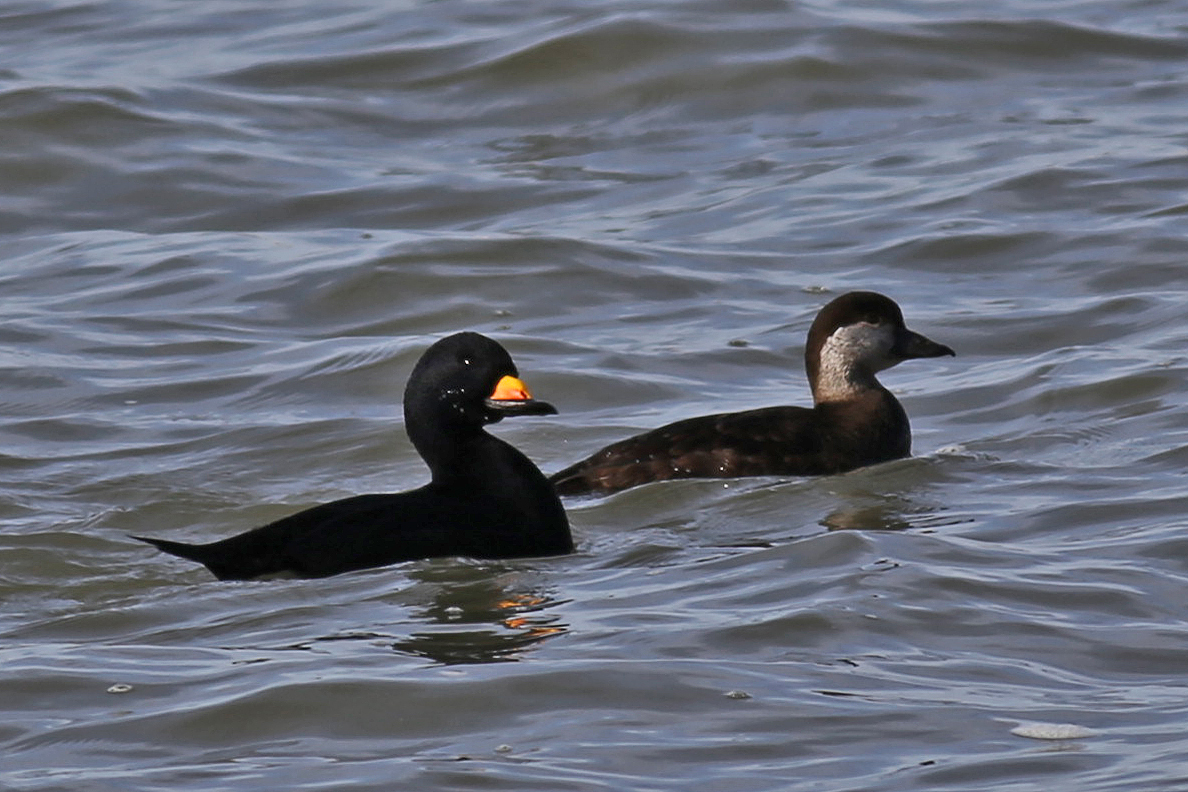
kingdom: Animalia
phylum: Chordata
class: Aves
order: Anseriformes
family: Anatidae
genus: Melanitta
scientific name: Melanitta americana
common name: Black scoter
